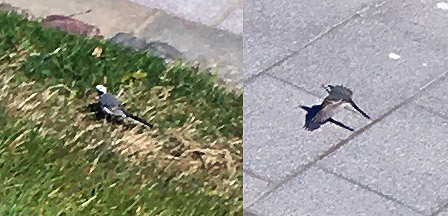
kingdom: Animalia
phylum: Chordata
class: Aves
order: Passeriformes
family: Motacillidae
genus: Motacilla
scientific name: Motacilla alba
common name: White wagtail
